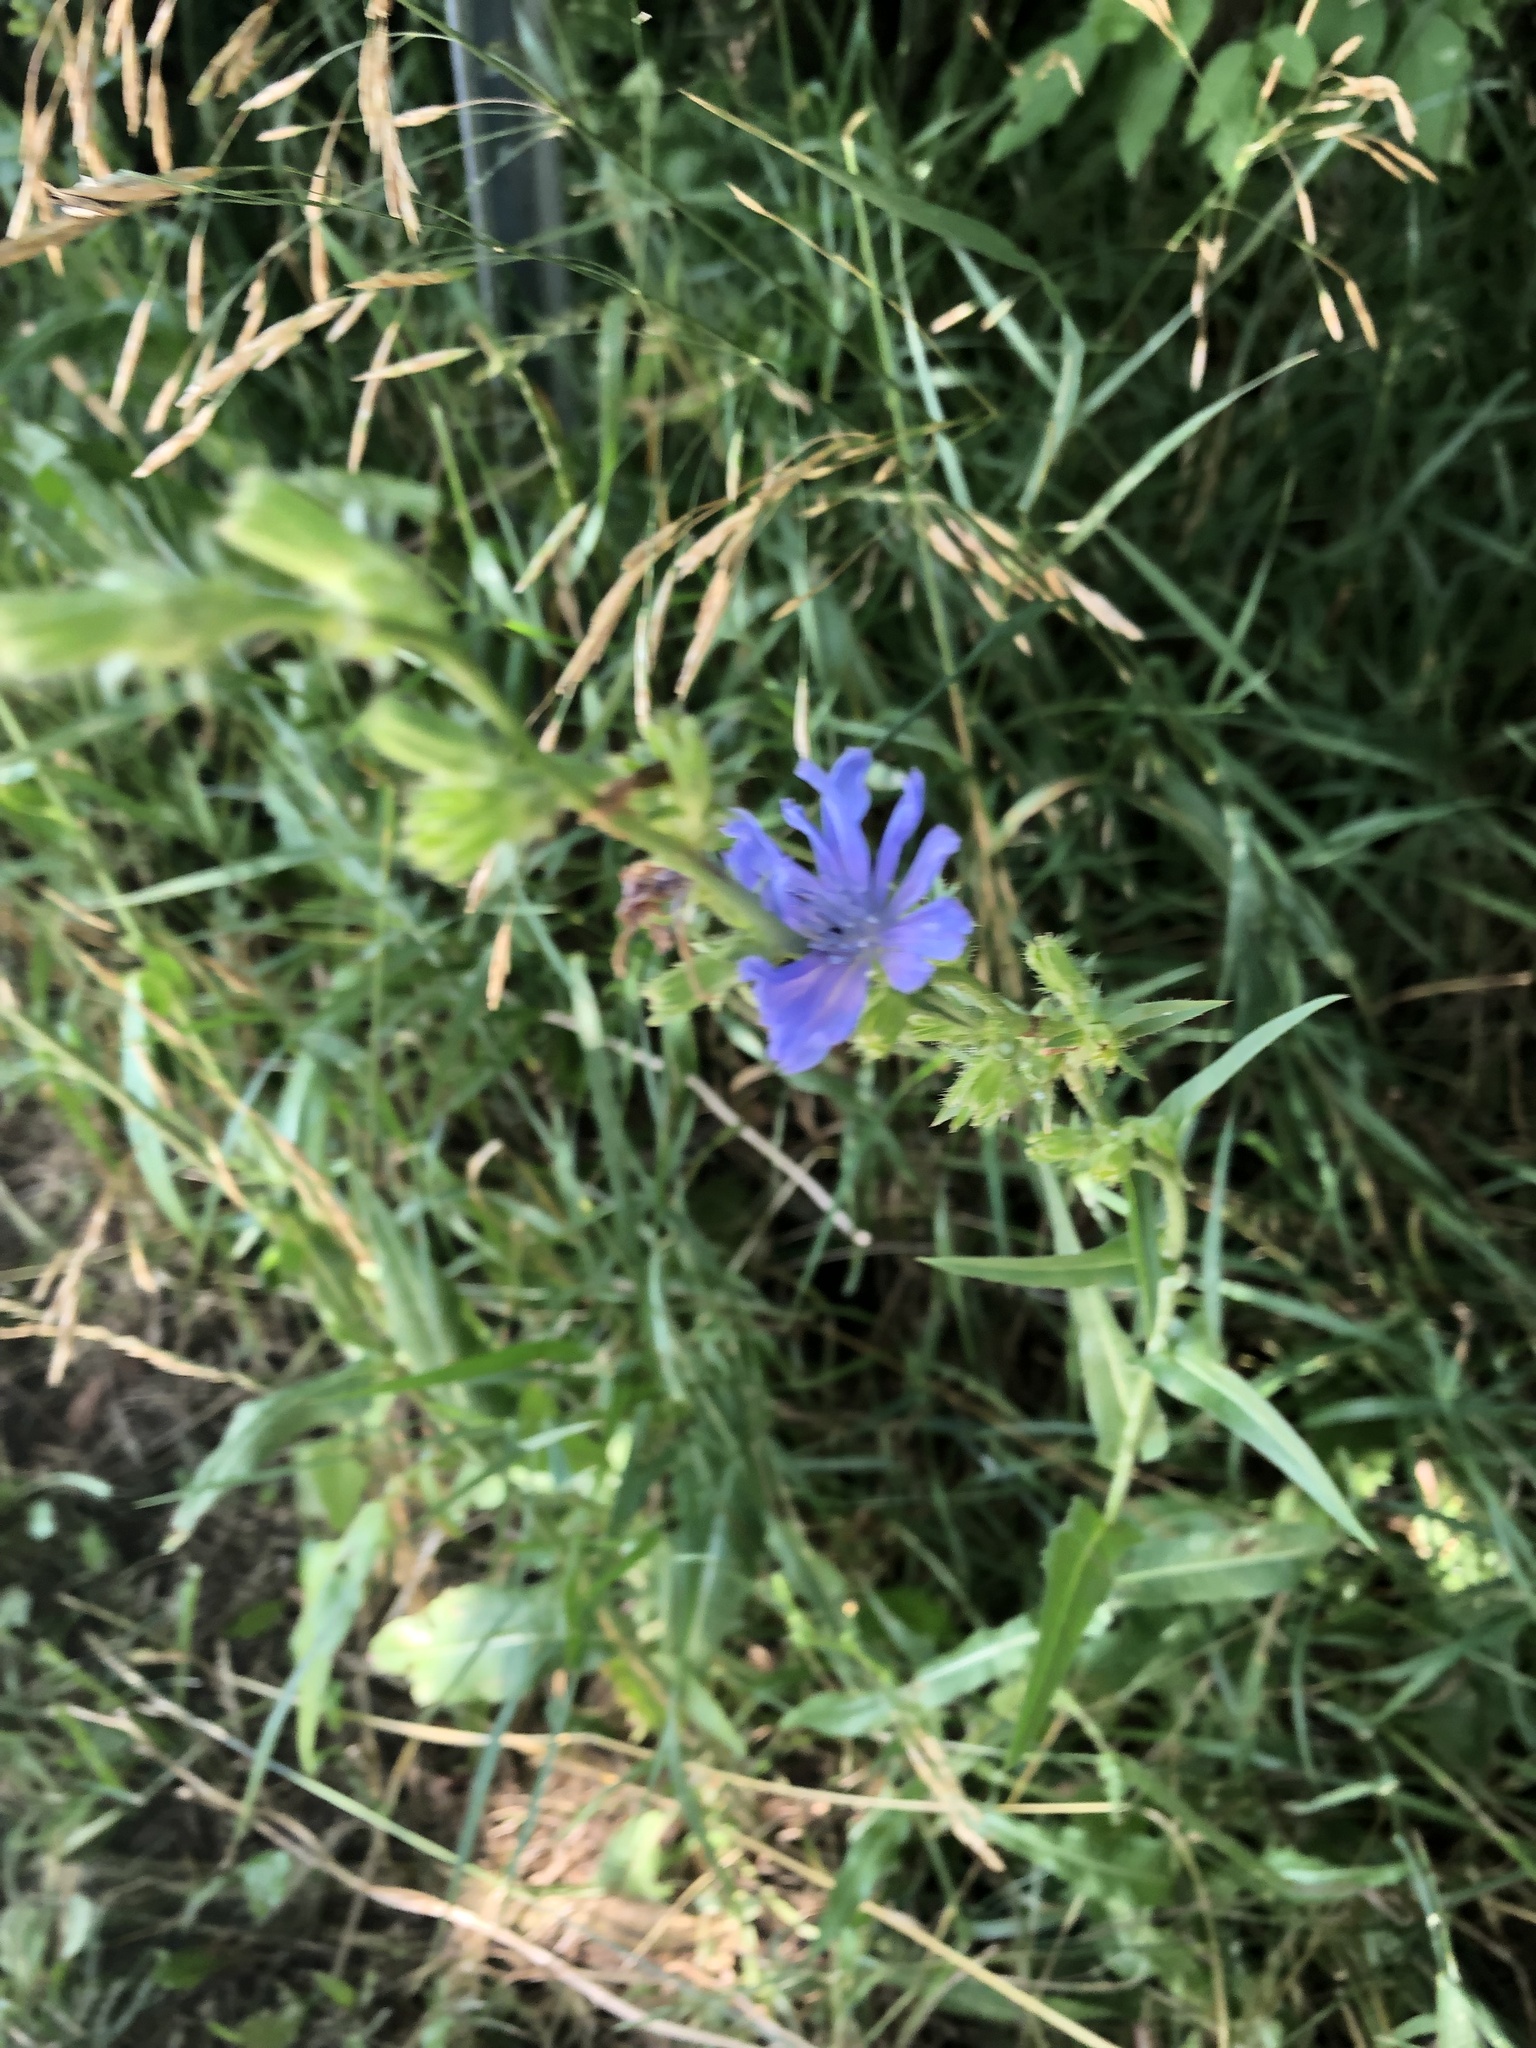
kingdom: Plantae
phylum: Tracheophyta
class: Magnoliopsida
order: Asterales
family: Asteraceae
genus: Cichorium
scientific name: Cichorium intybus
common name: Chicory
